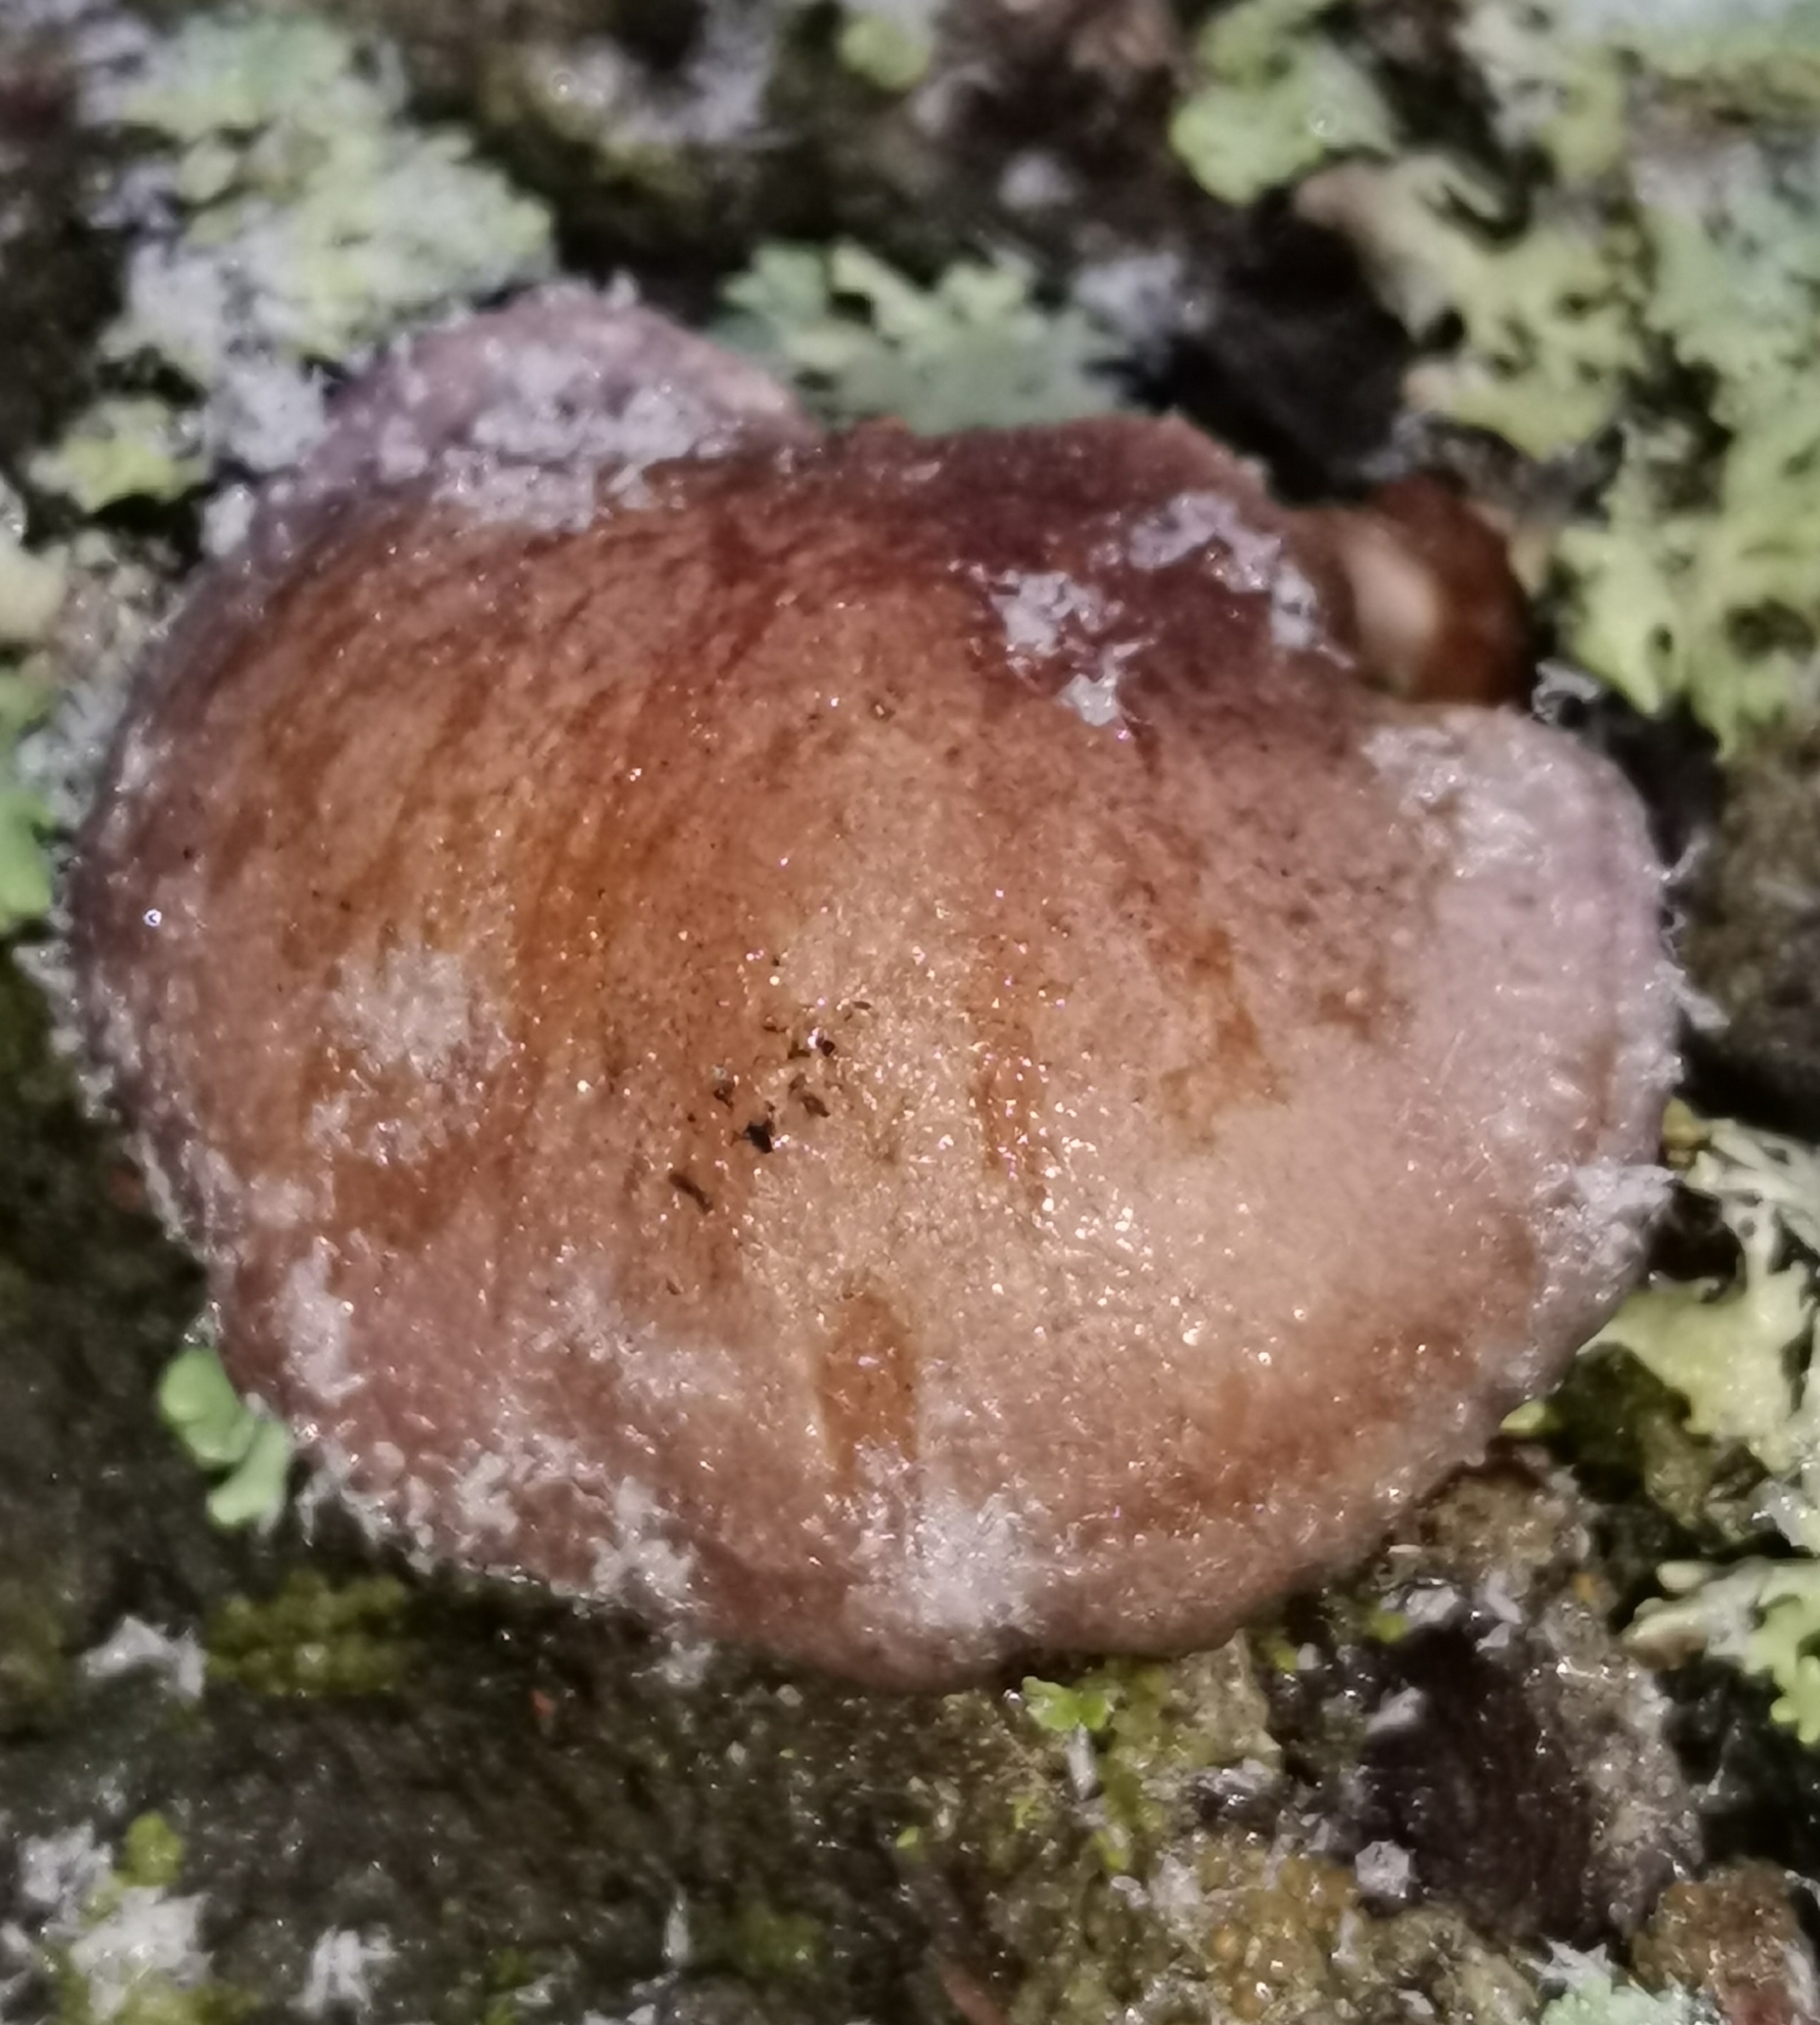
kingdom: Fungi
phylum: Basidiomycota
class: Agaricomycetes
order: Agaricales
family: Sarcomyxaceae
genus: Sarcomyxa
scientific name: Sarcomyxa serotina
